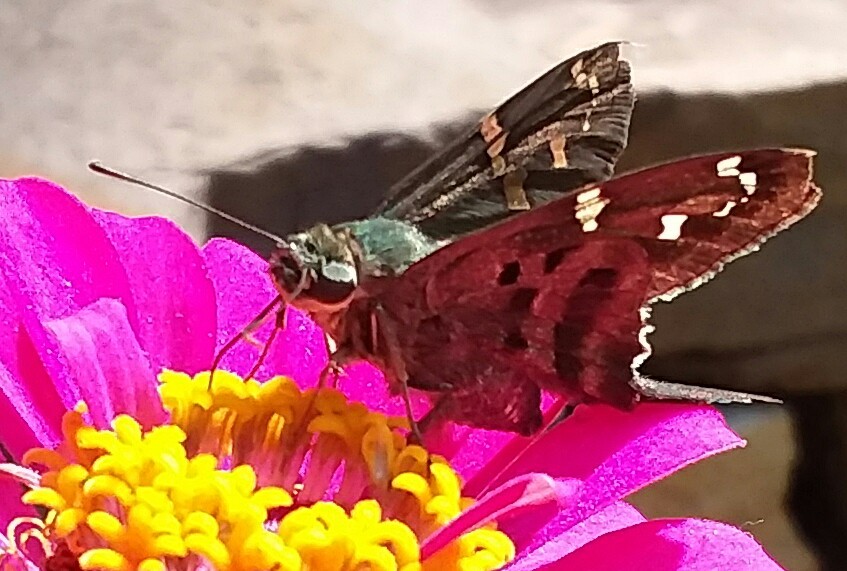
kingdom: Animalia
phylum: Arthropoda
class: Insecta
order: Lepidoptera
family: Hesperiidae
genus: Urbanus
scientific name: Urbanus proteus
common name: Long-tailed skipper
